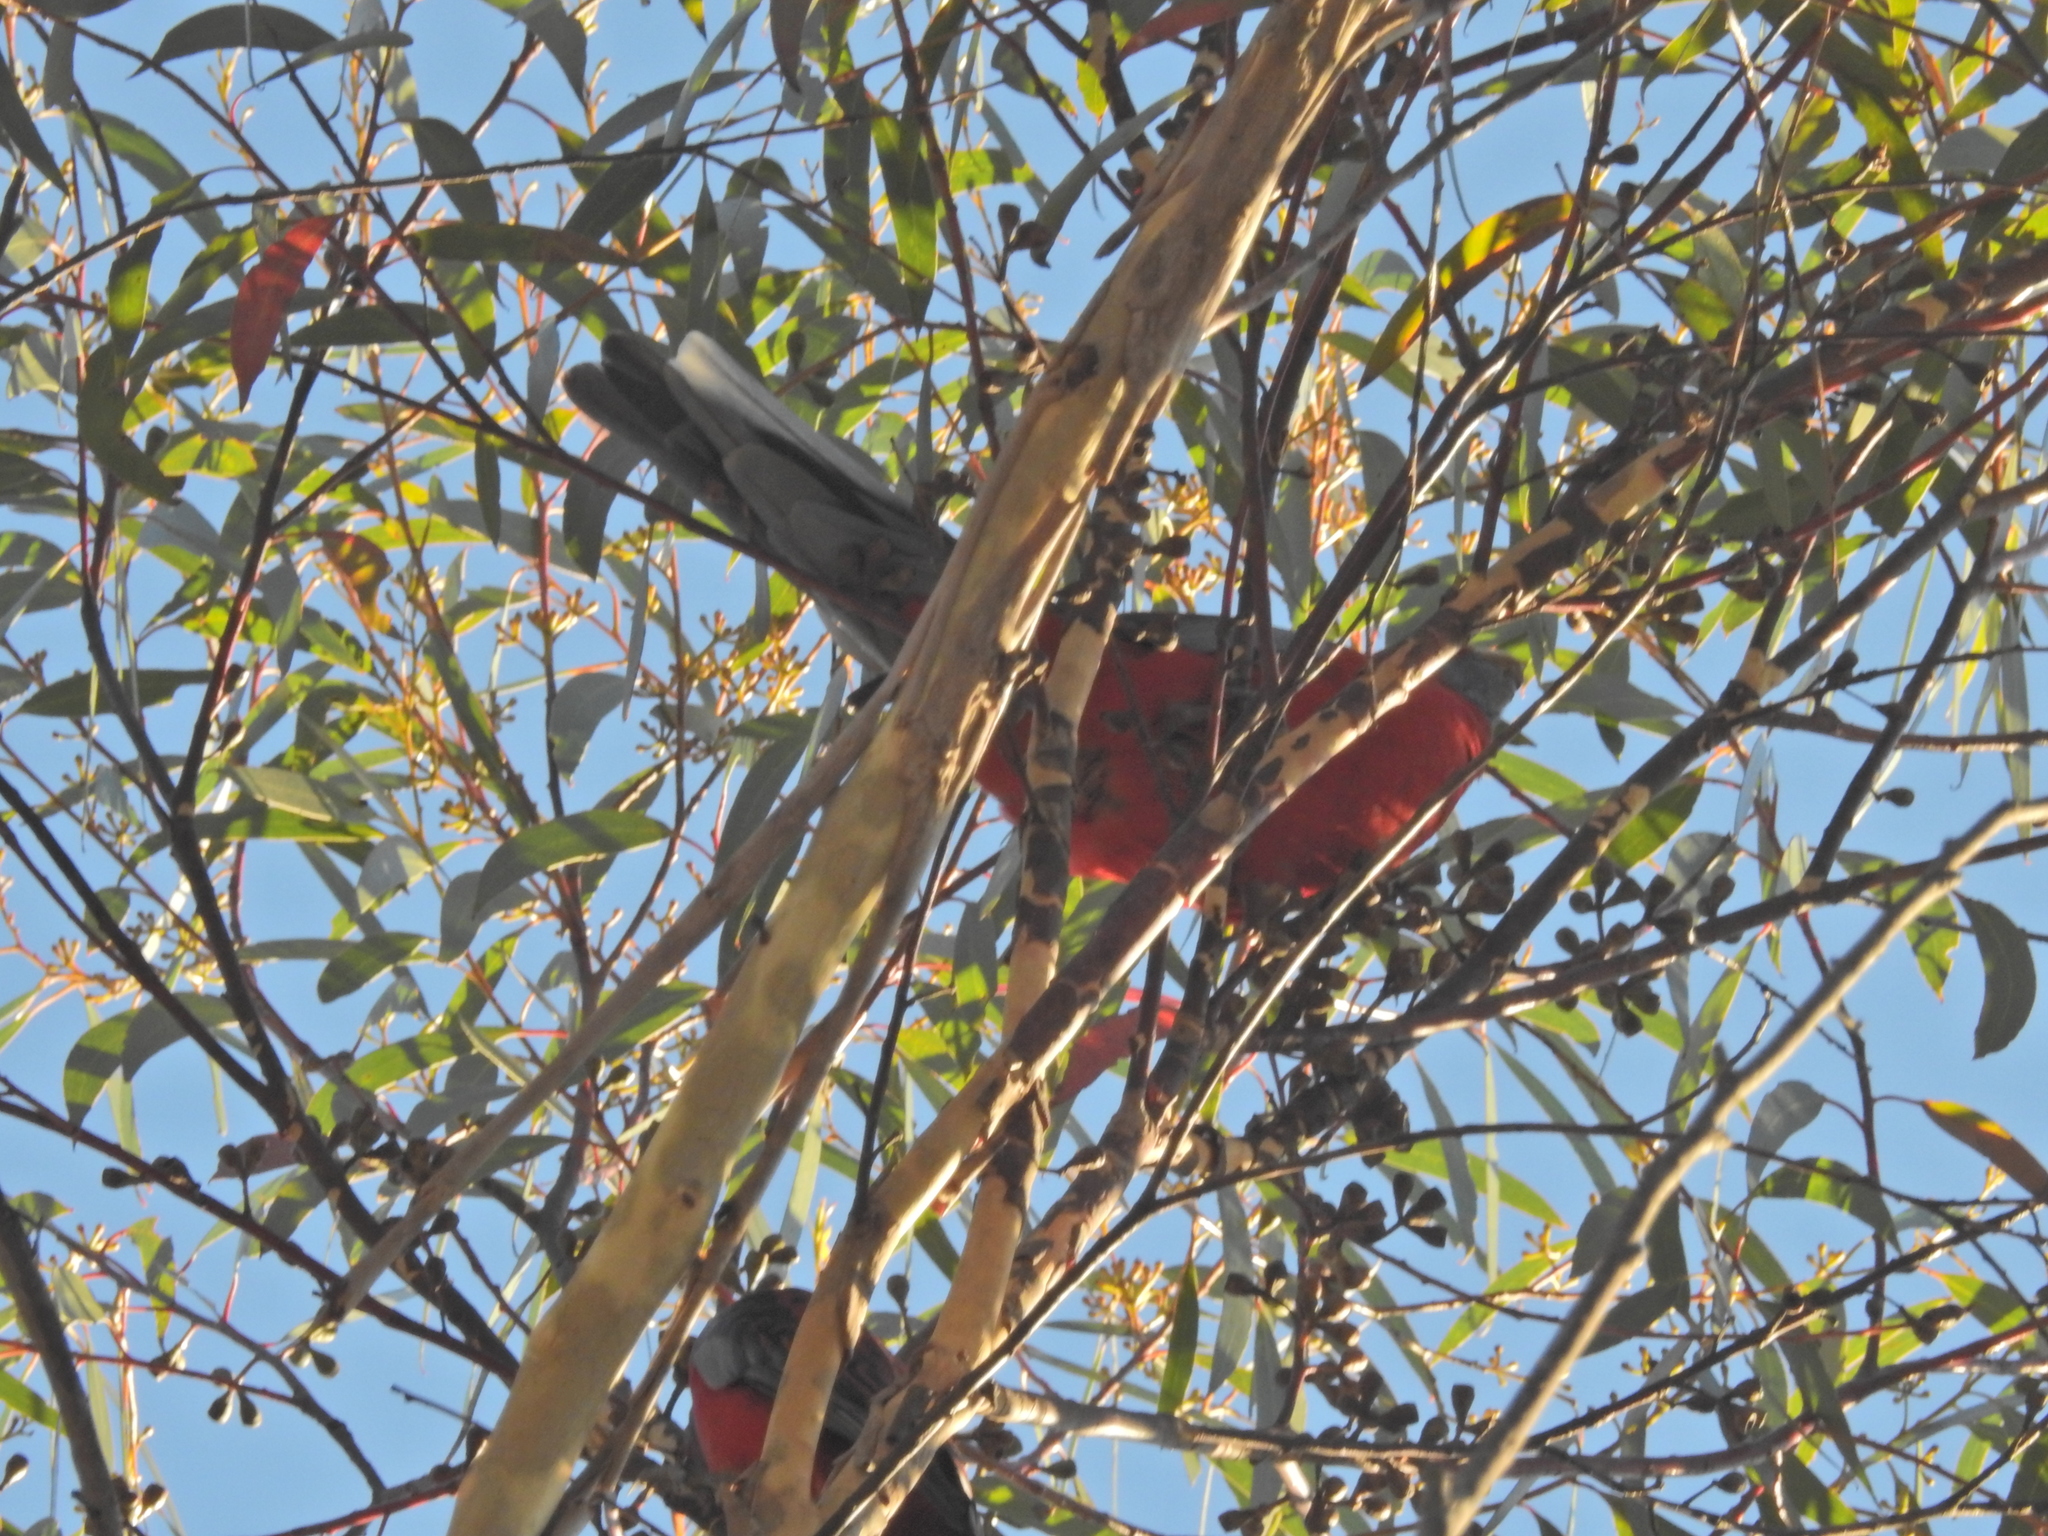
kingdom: Animalia
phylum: Chordata
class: Aves
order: Psittaciformes
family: Psittacidae
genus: Platycercus
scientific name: Platycercus elegans
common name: Crimson rosella
